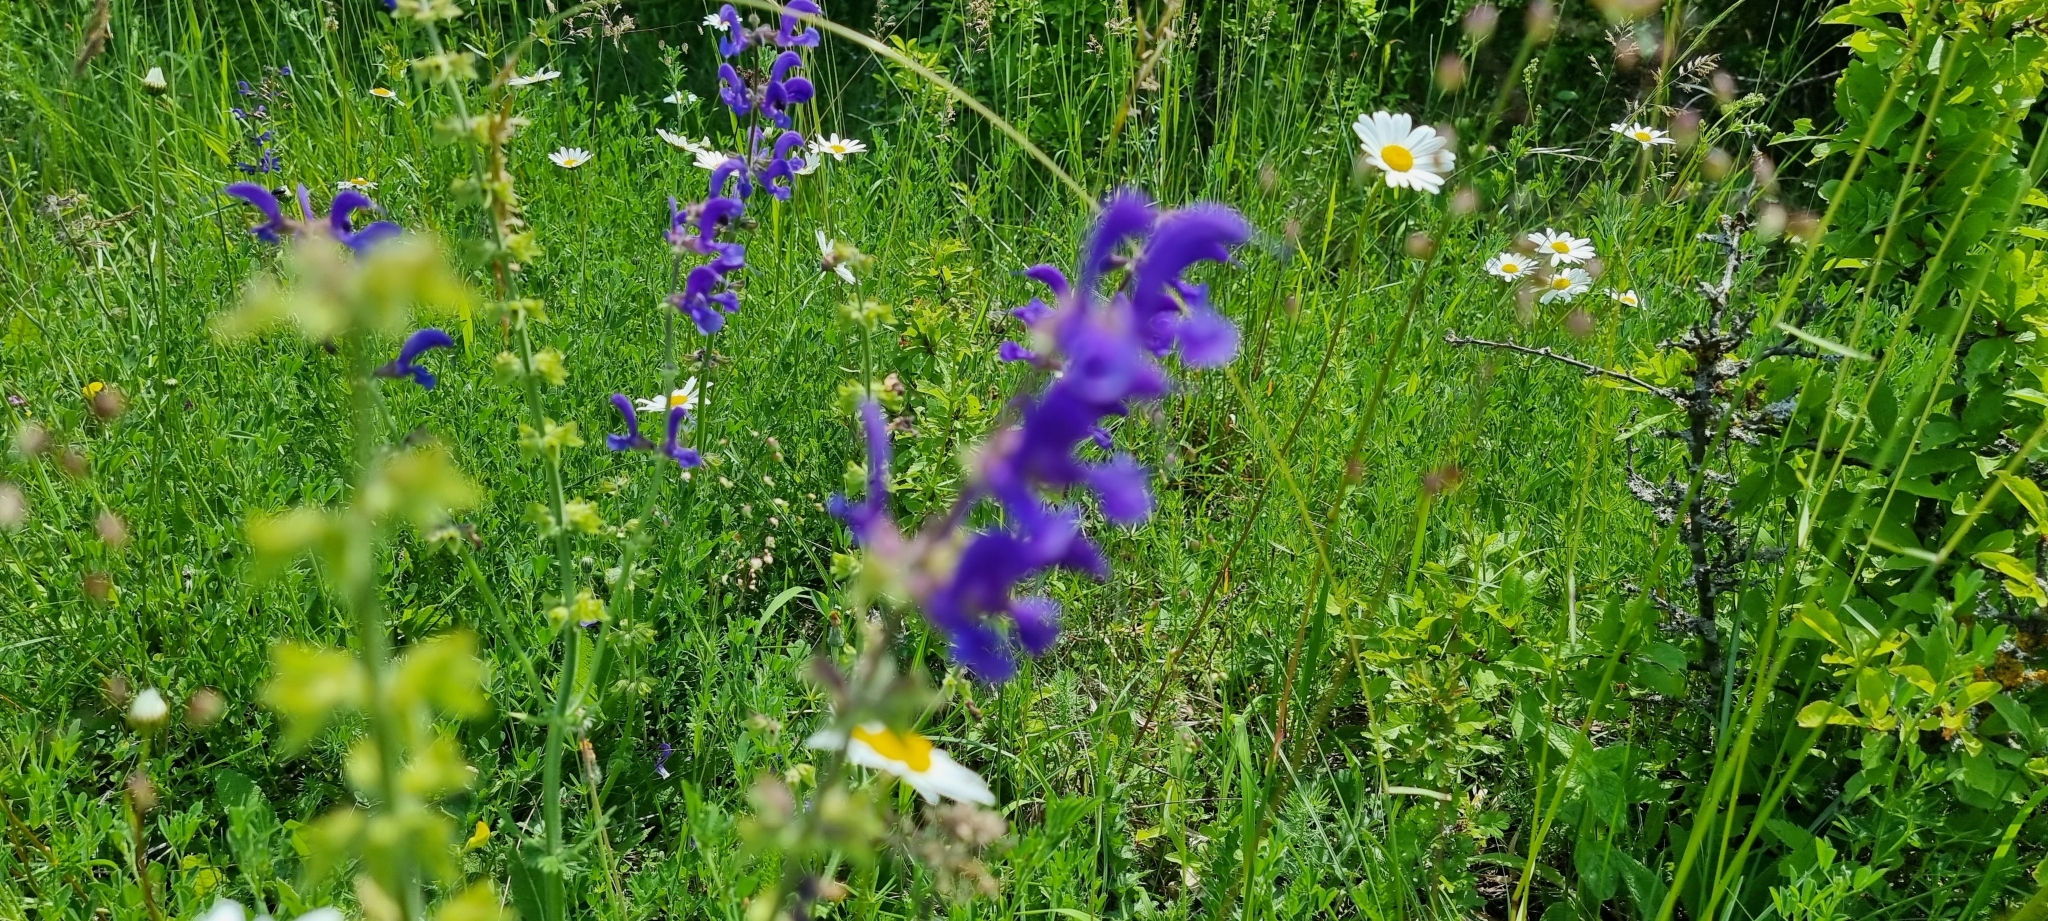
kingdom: Plantae
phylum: Tracheophyta
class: Magnoliopsida
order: Lamiales
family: Lamiaceae
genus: Salvia
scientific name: Salvia pratensis
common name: Meadow sage
